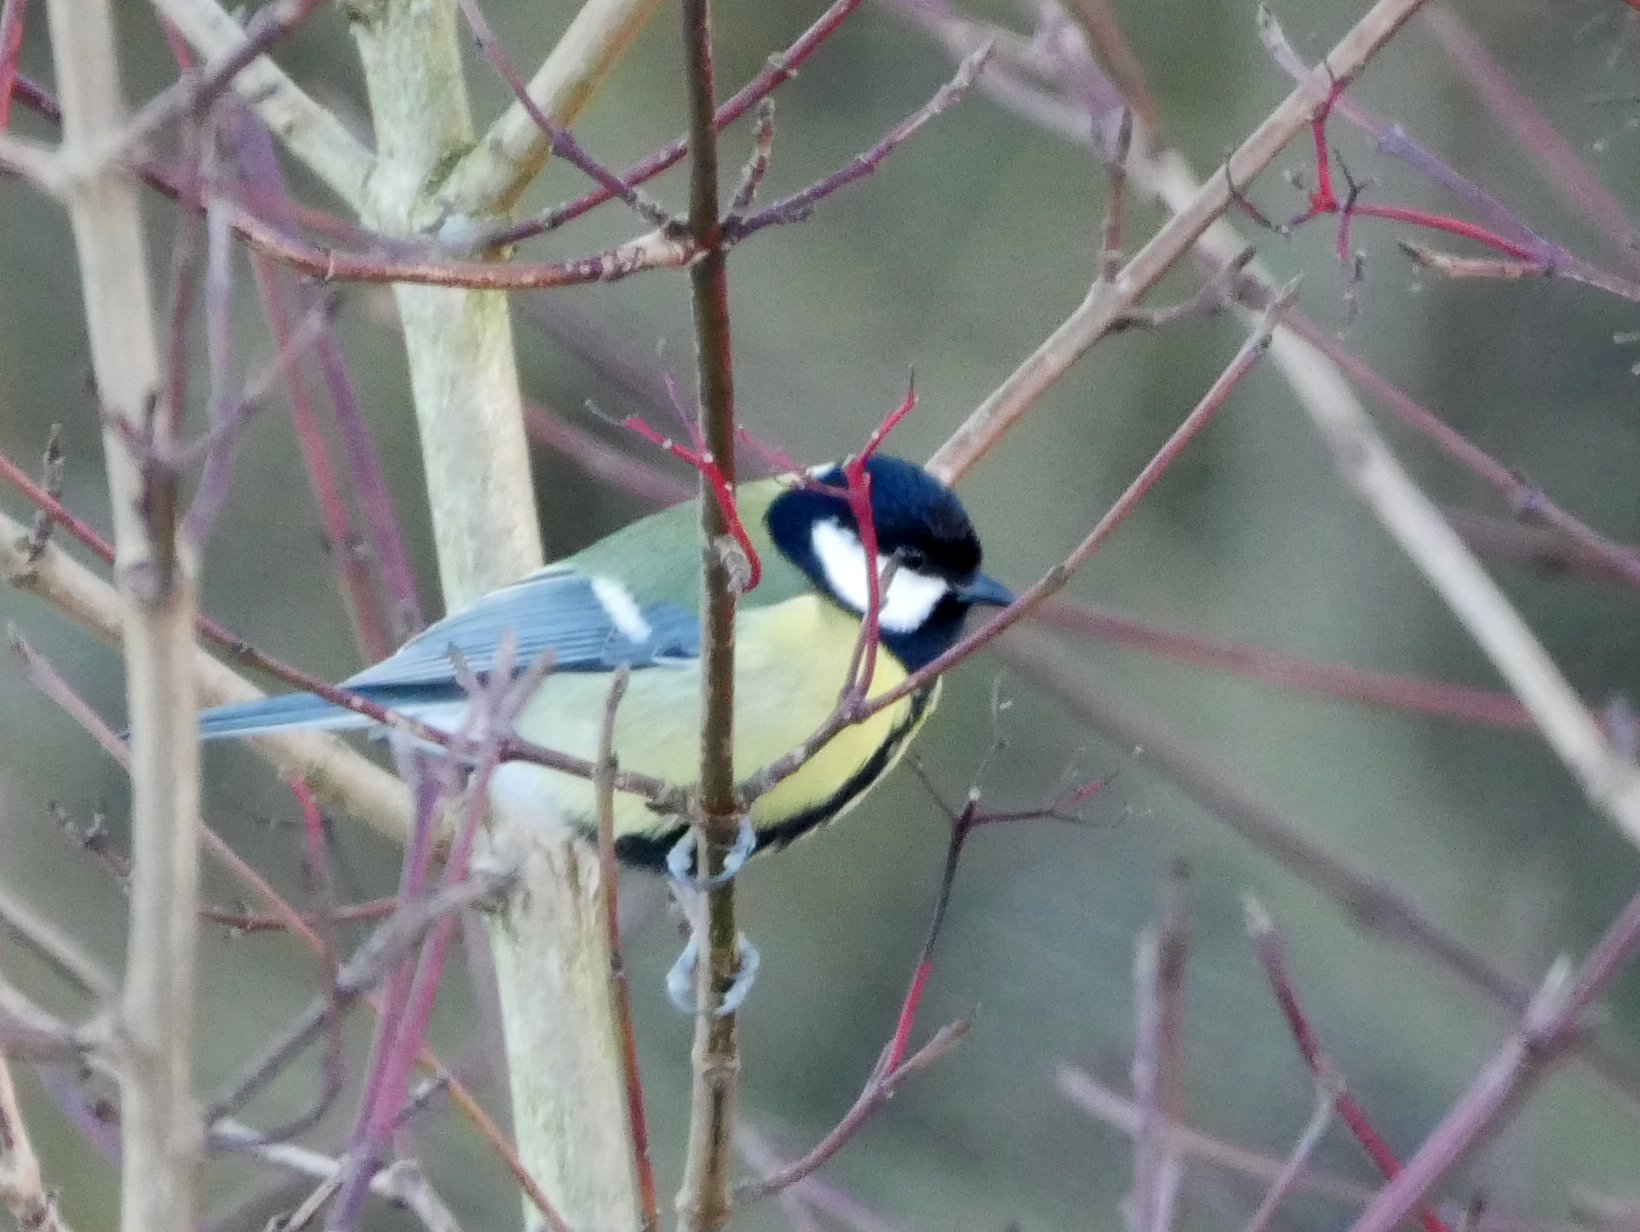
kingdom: Animalia
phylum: Chordata
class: Aves
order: Passeriformes
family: Paridae
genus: Parus
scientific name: Parus major
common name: Great tit
